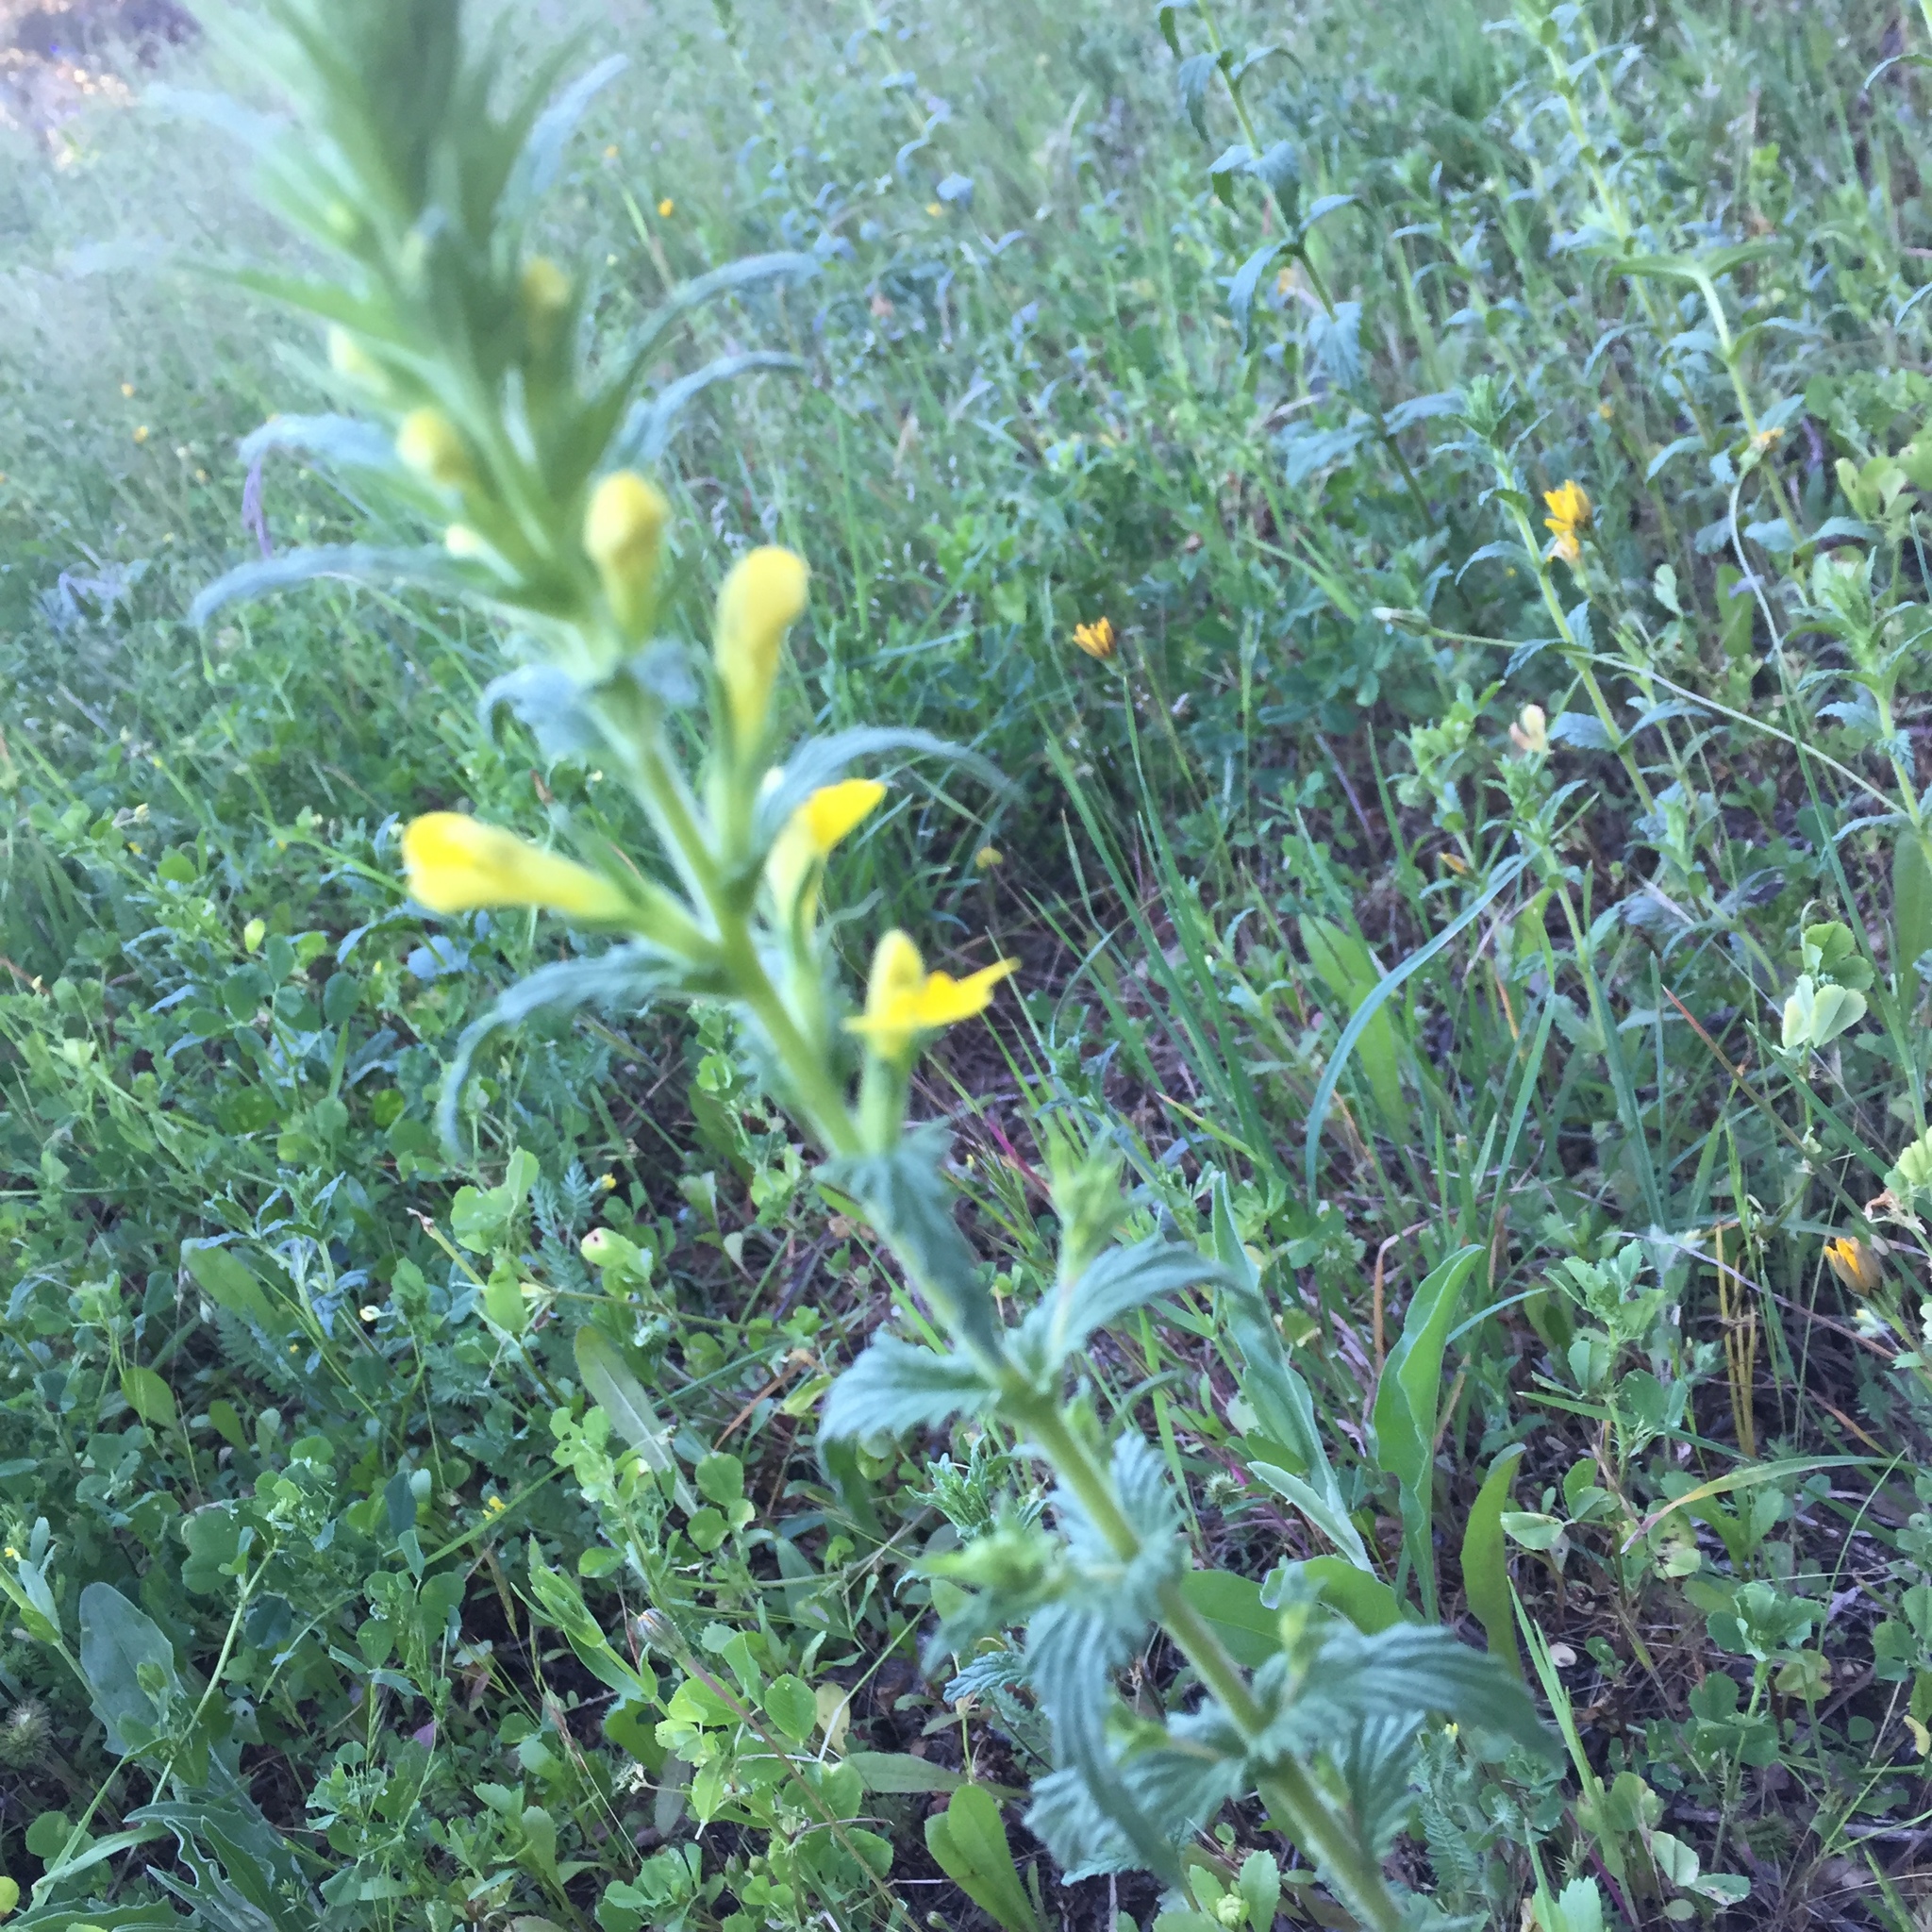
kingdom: Plantae
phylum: Tracheophyta
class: Magnoliopsida
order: Lamiales
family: Orobanchaceae
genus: Bellardia
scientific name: Bellardia viscosa
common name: Sticky parentucellia
